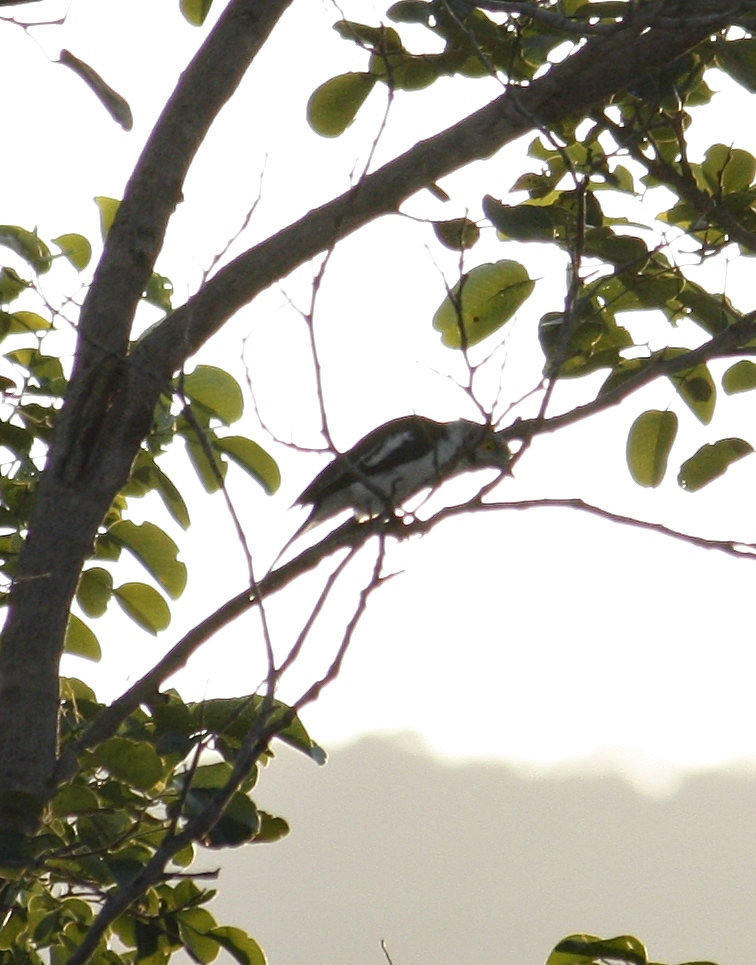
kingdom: Animalia
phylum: Chordata
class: Aves
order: Passeriformes
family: Prionopidae
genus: Prionops
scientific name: Prionops plumatus
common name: White-crested helmetshrike
